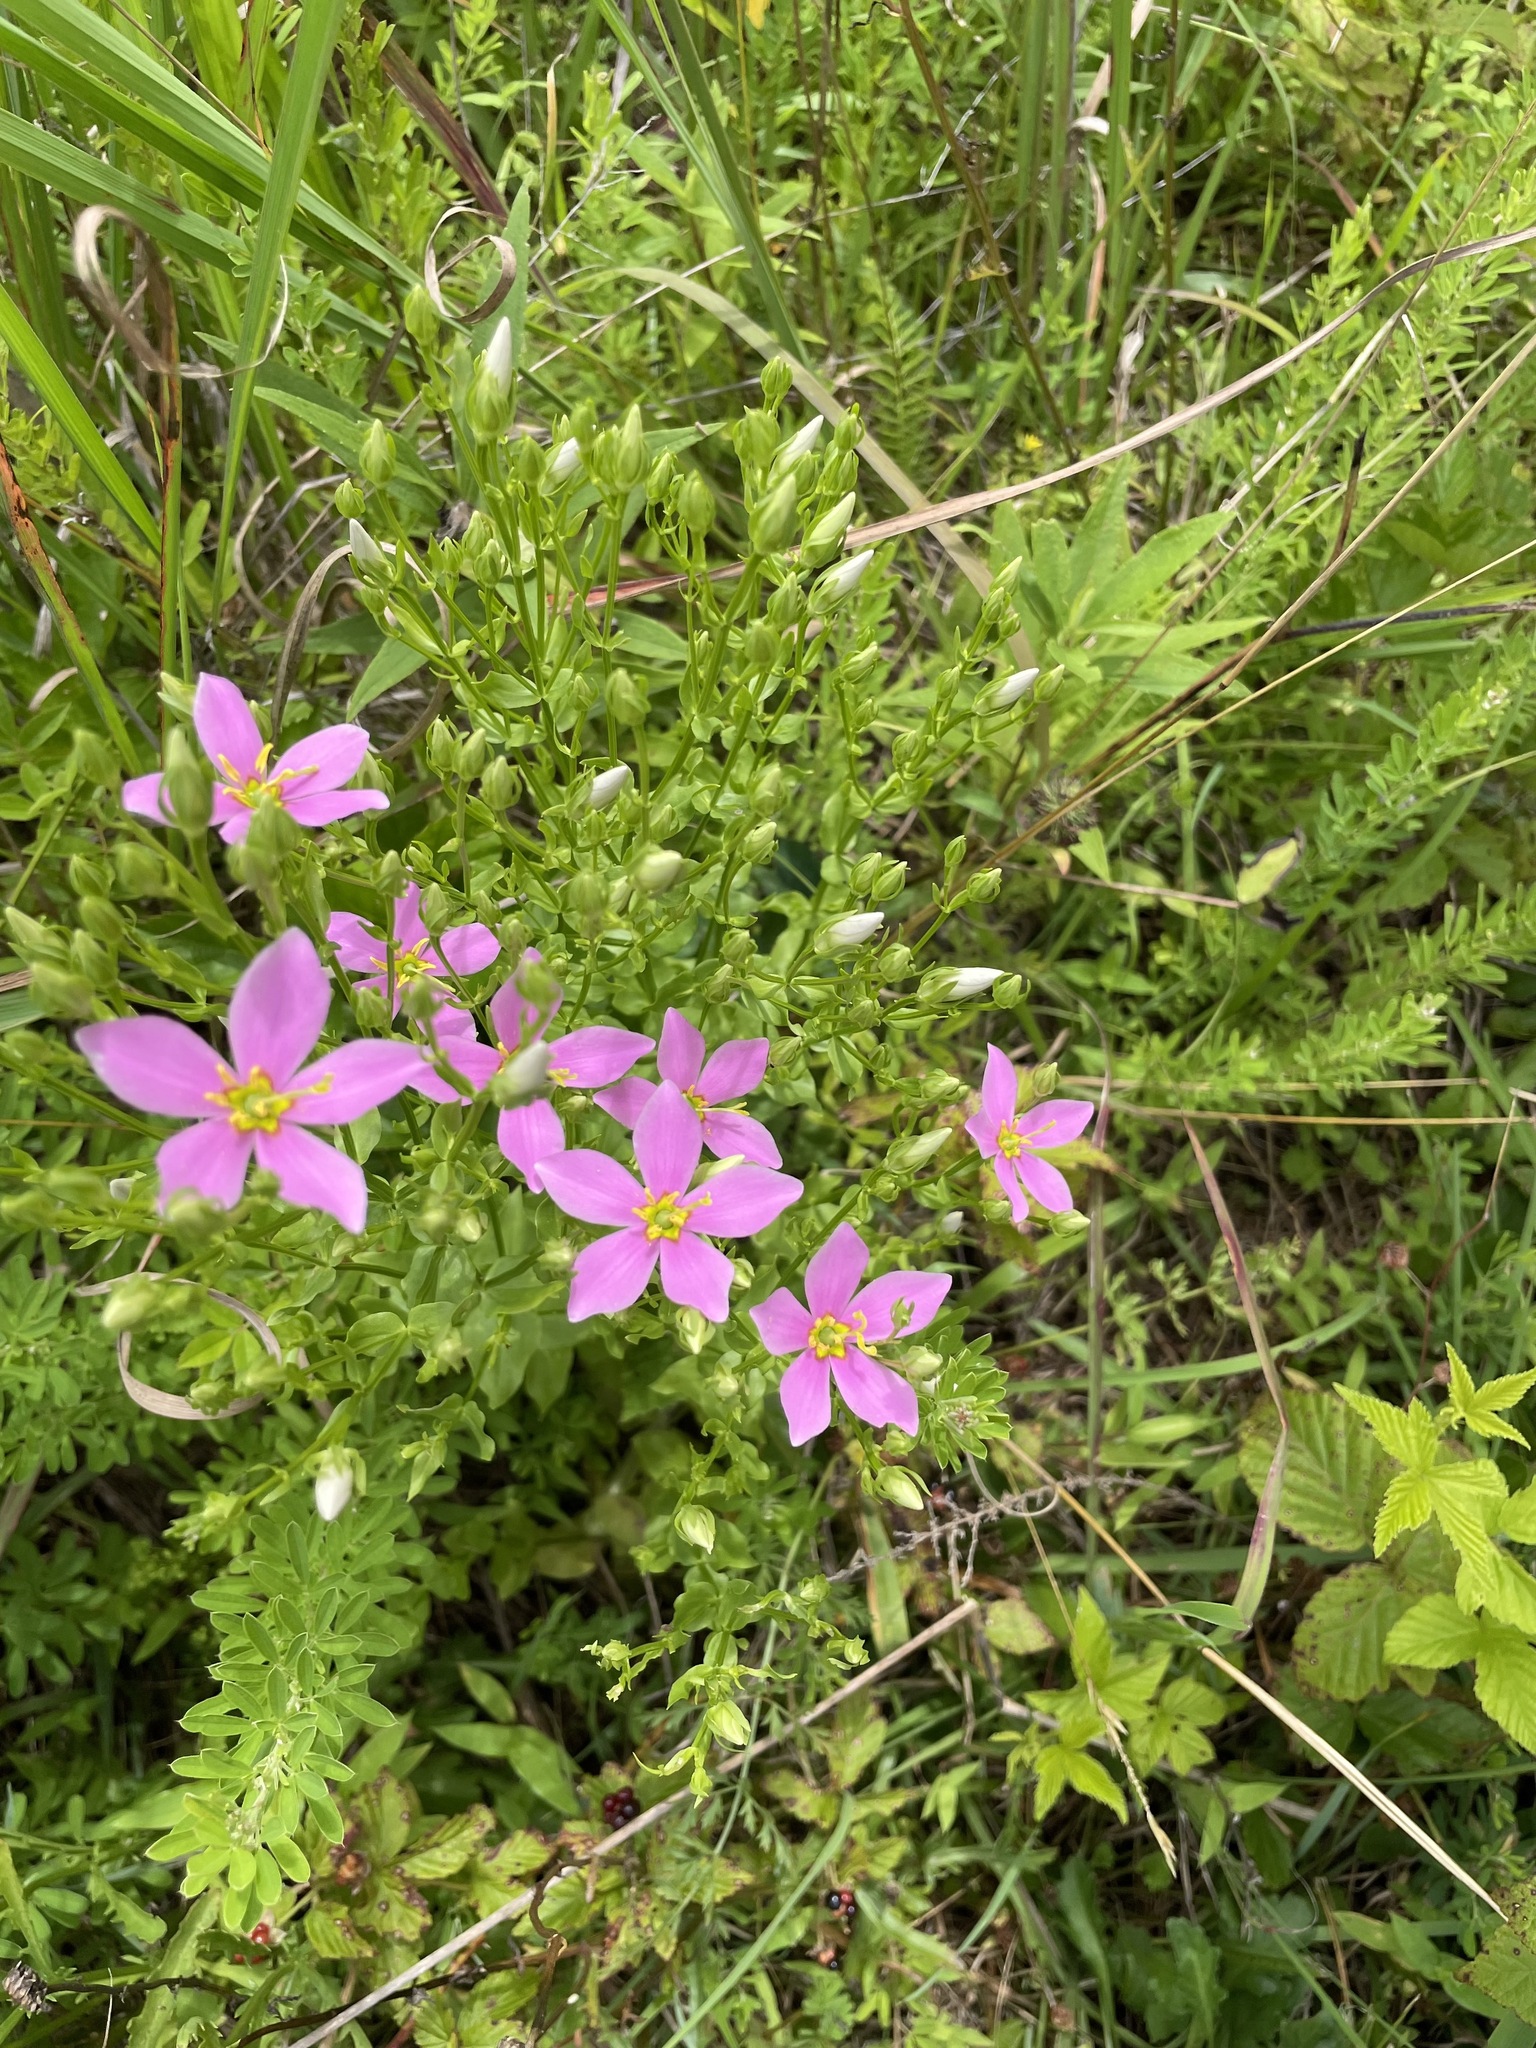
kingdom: Plantae
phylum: Tracheophyta
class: Magnoliopsida
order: Gentianales
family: Gentianaceae
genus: Sabatia
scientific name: Sabatia angularis
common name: Rose-pink
